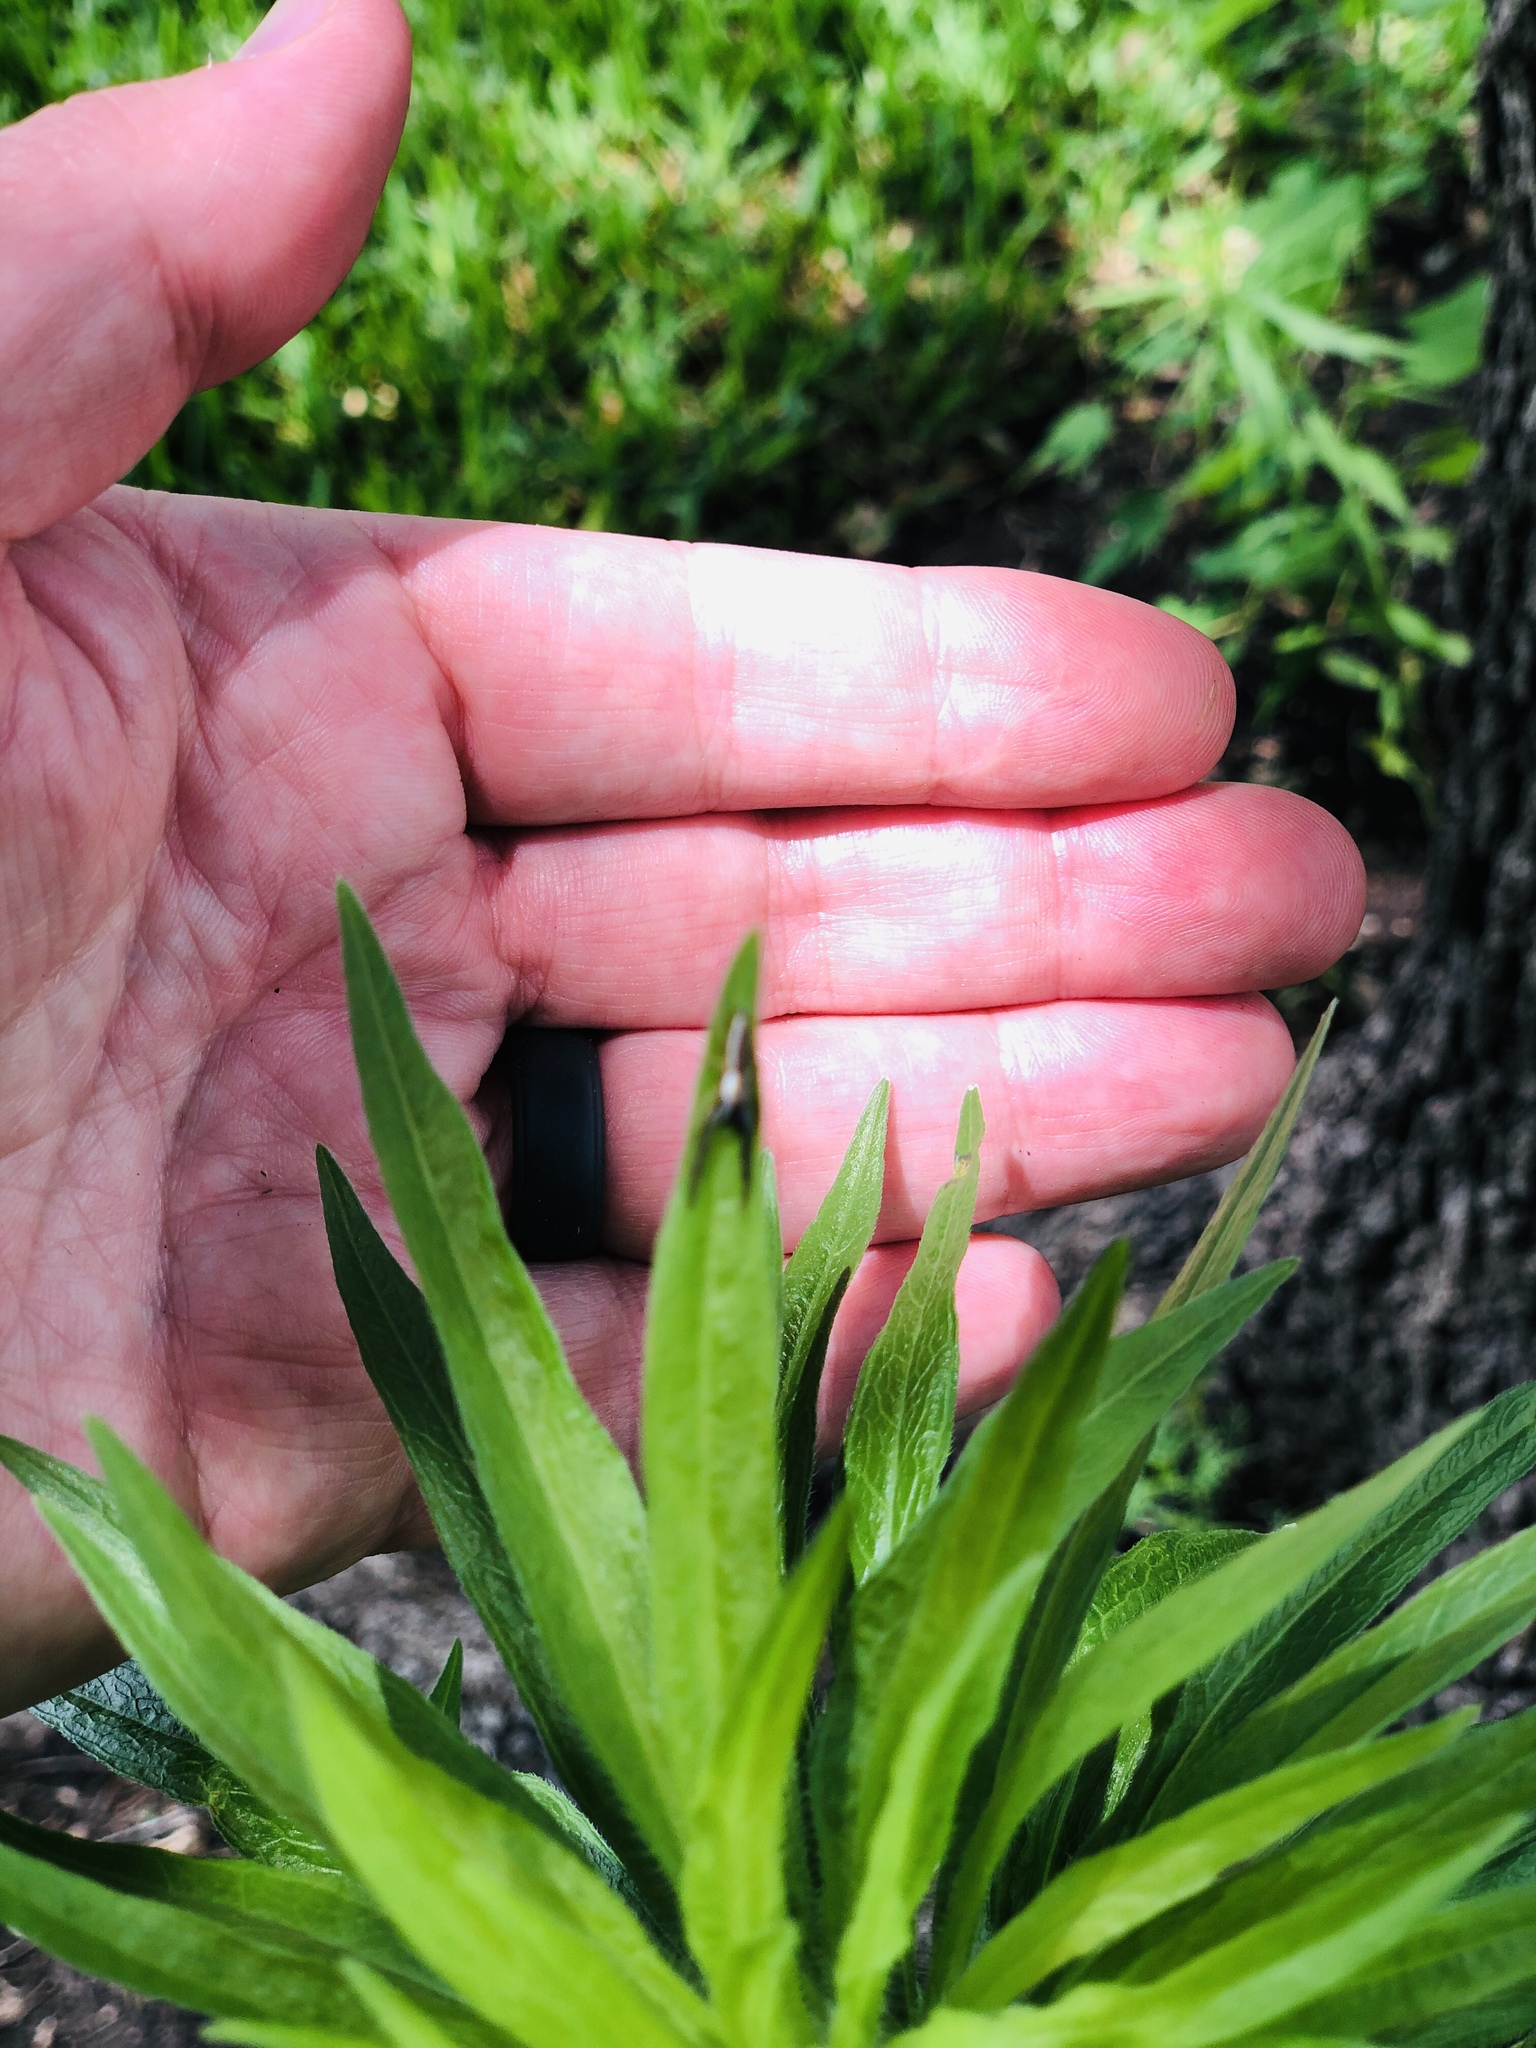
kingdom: Animalia
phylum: Arthropoda
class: Arachnida
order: Araneae
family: Salticidae
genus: Hentzia
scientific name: Hentzia palmarum
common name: Common hentz jumping spider
